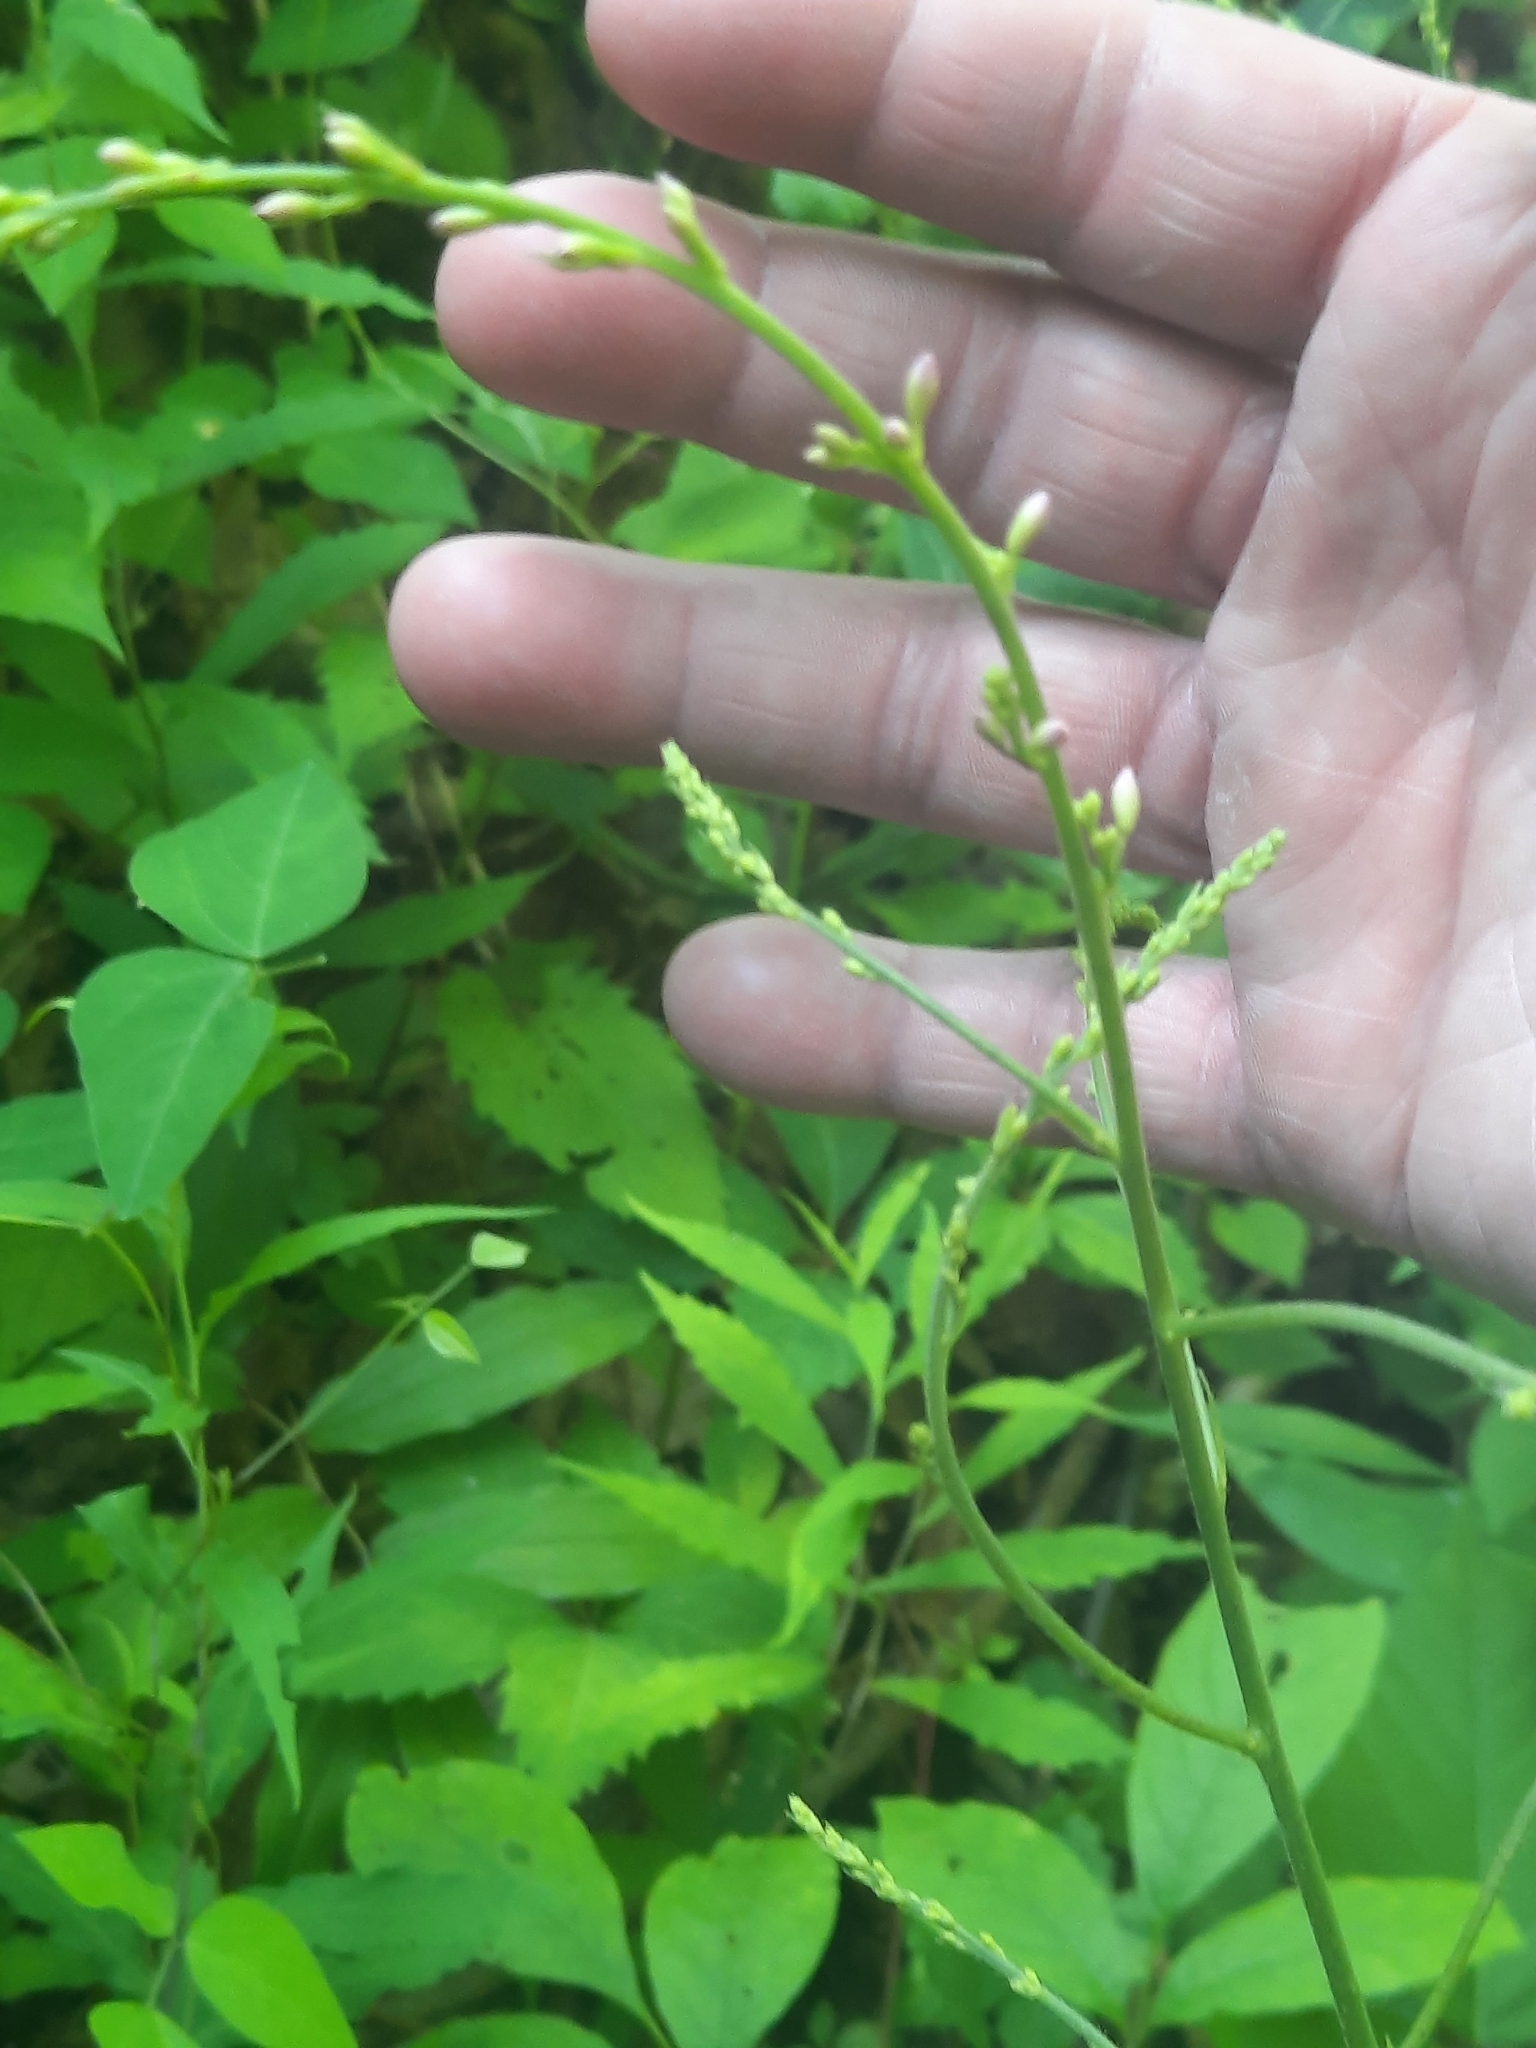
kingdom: Plantae
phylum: Tracheophyta
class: Magnoliopsida
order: Fabales
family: Fabaceae
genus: Hylodesmum
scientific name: Hylodesmum glutinosum
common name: Clustered-leaved tick-trefoil
